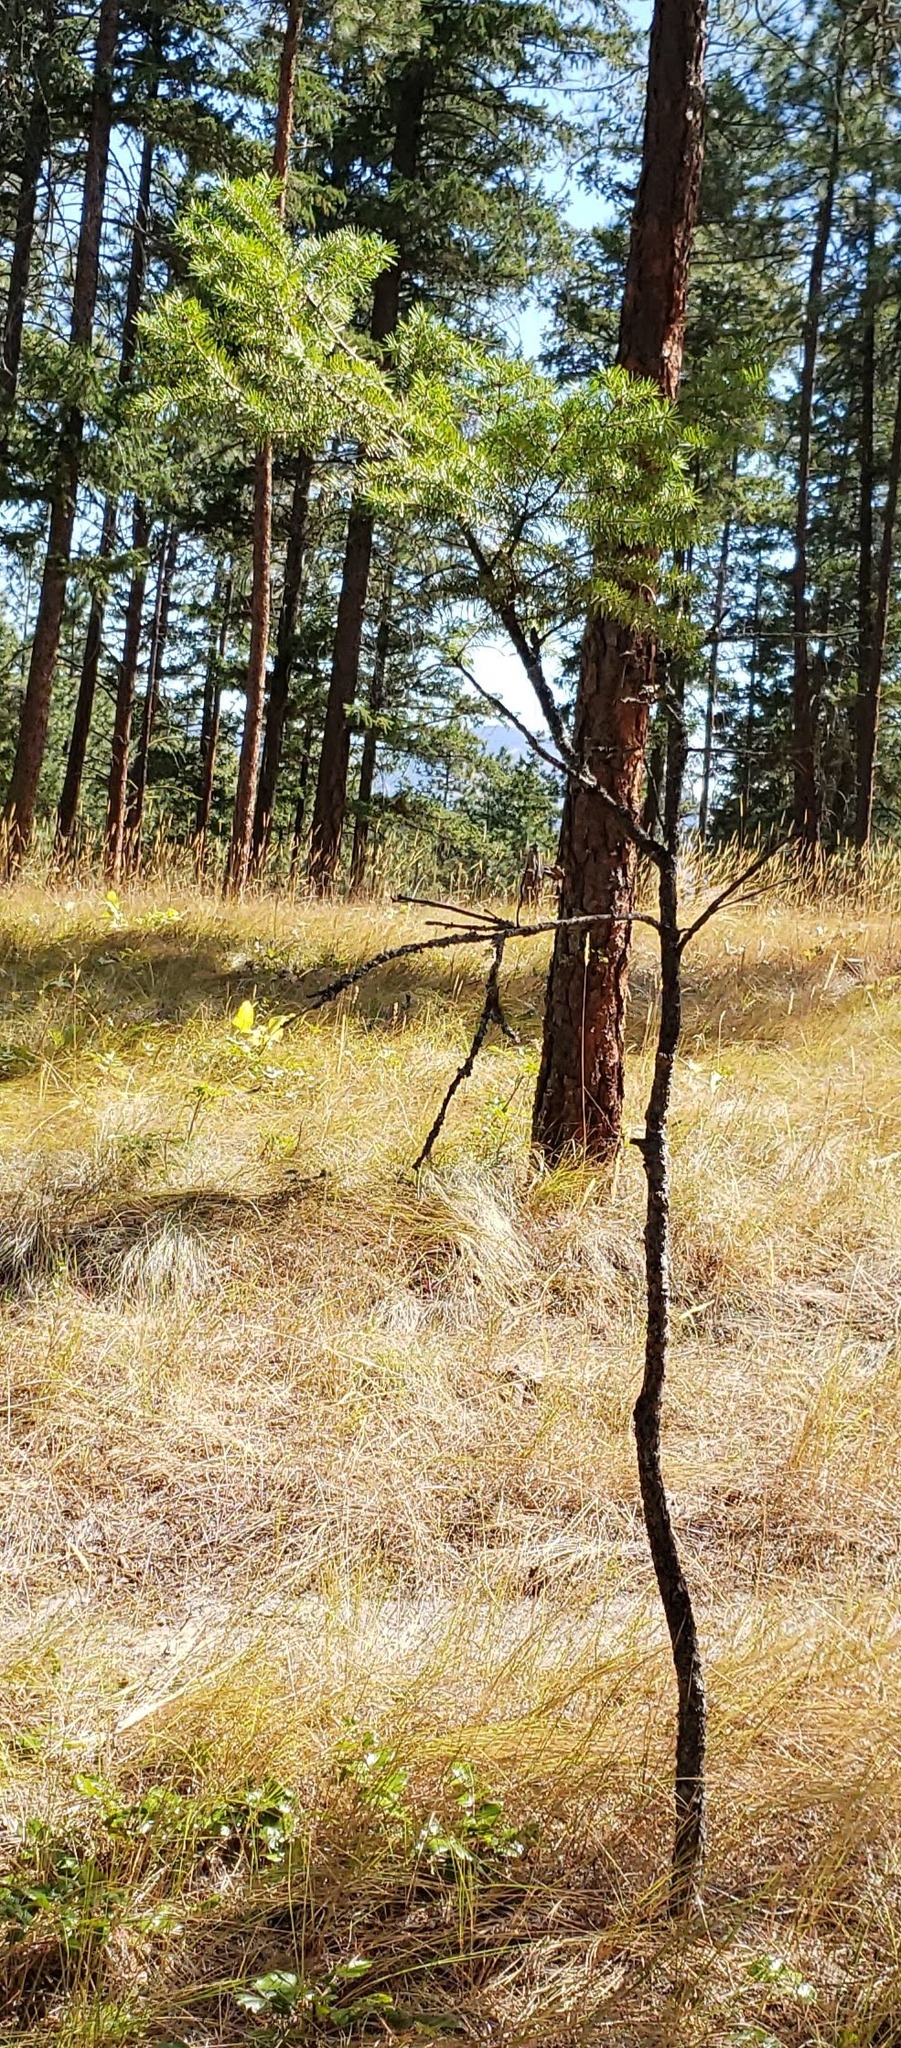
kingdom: Plantae
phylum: Tracheophyta
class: Pinopsida
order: Pinales
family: Pinaceae
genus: Pseudotsuga
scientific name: Pseudotsuga menziesii
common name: Douglas fir
